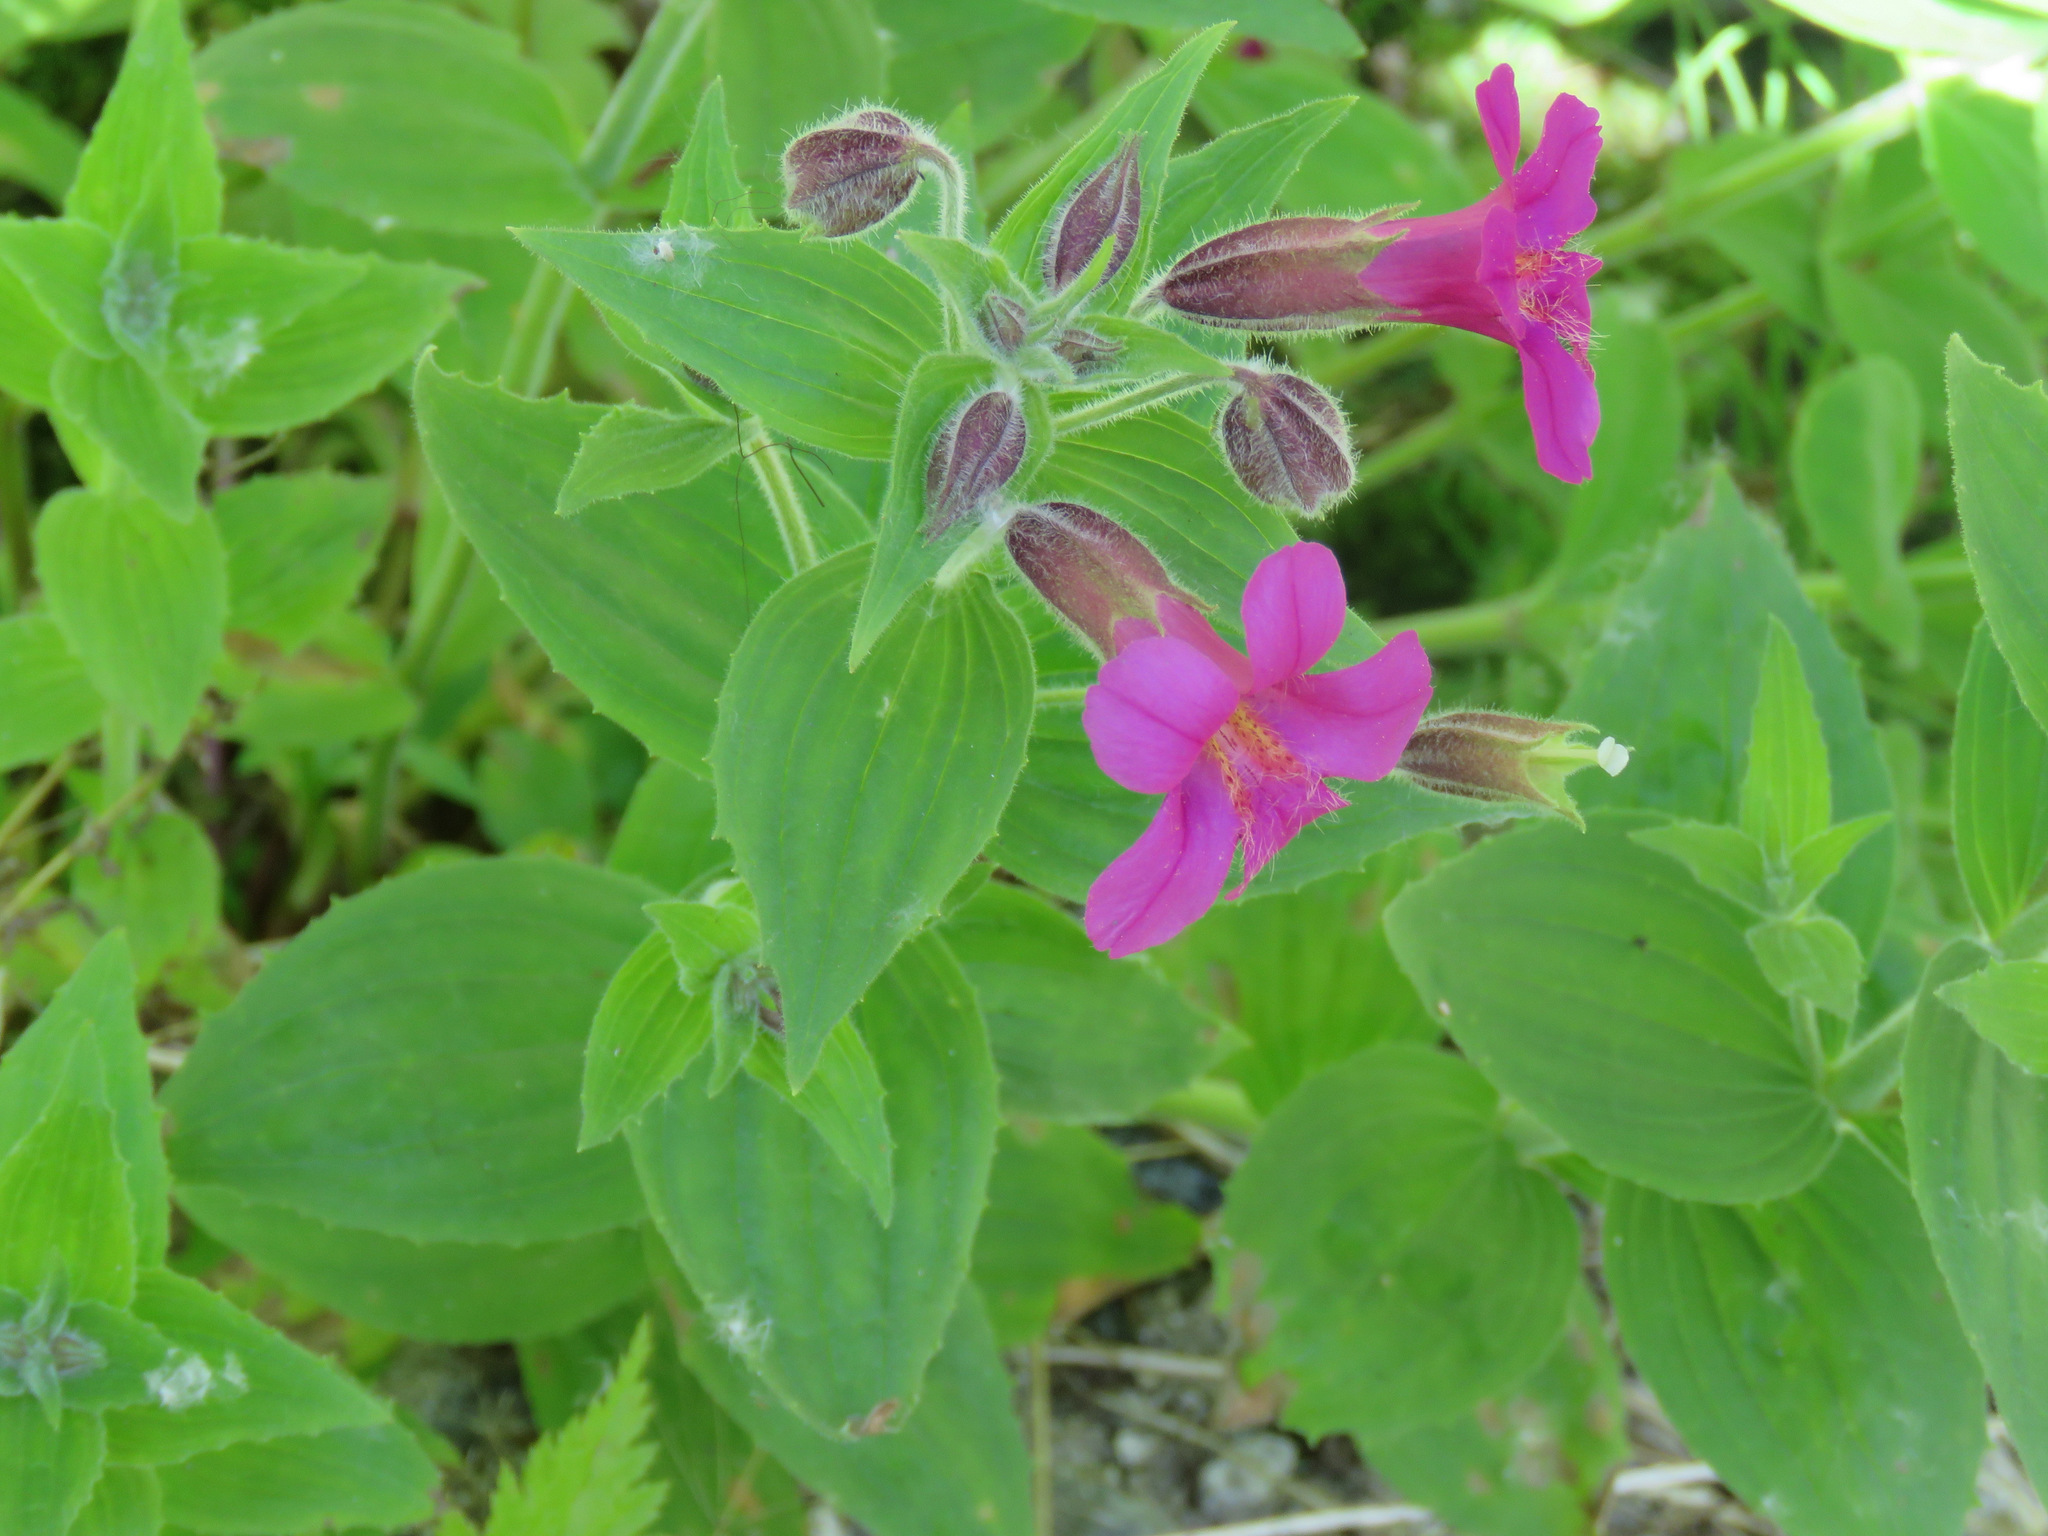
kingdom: Plantae
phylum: Tracheophyta
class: Magnoliopsida
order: Lamiales
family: Phrymaceae
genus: Erythranthe
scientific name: Erythranthe lewisii
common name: Lewis's monkey-flower
